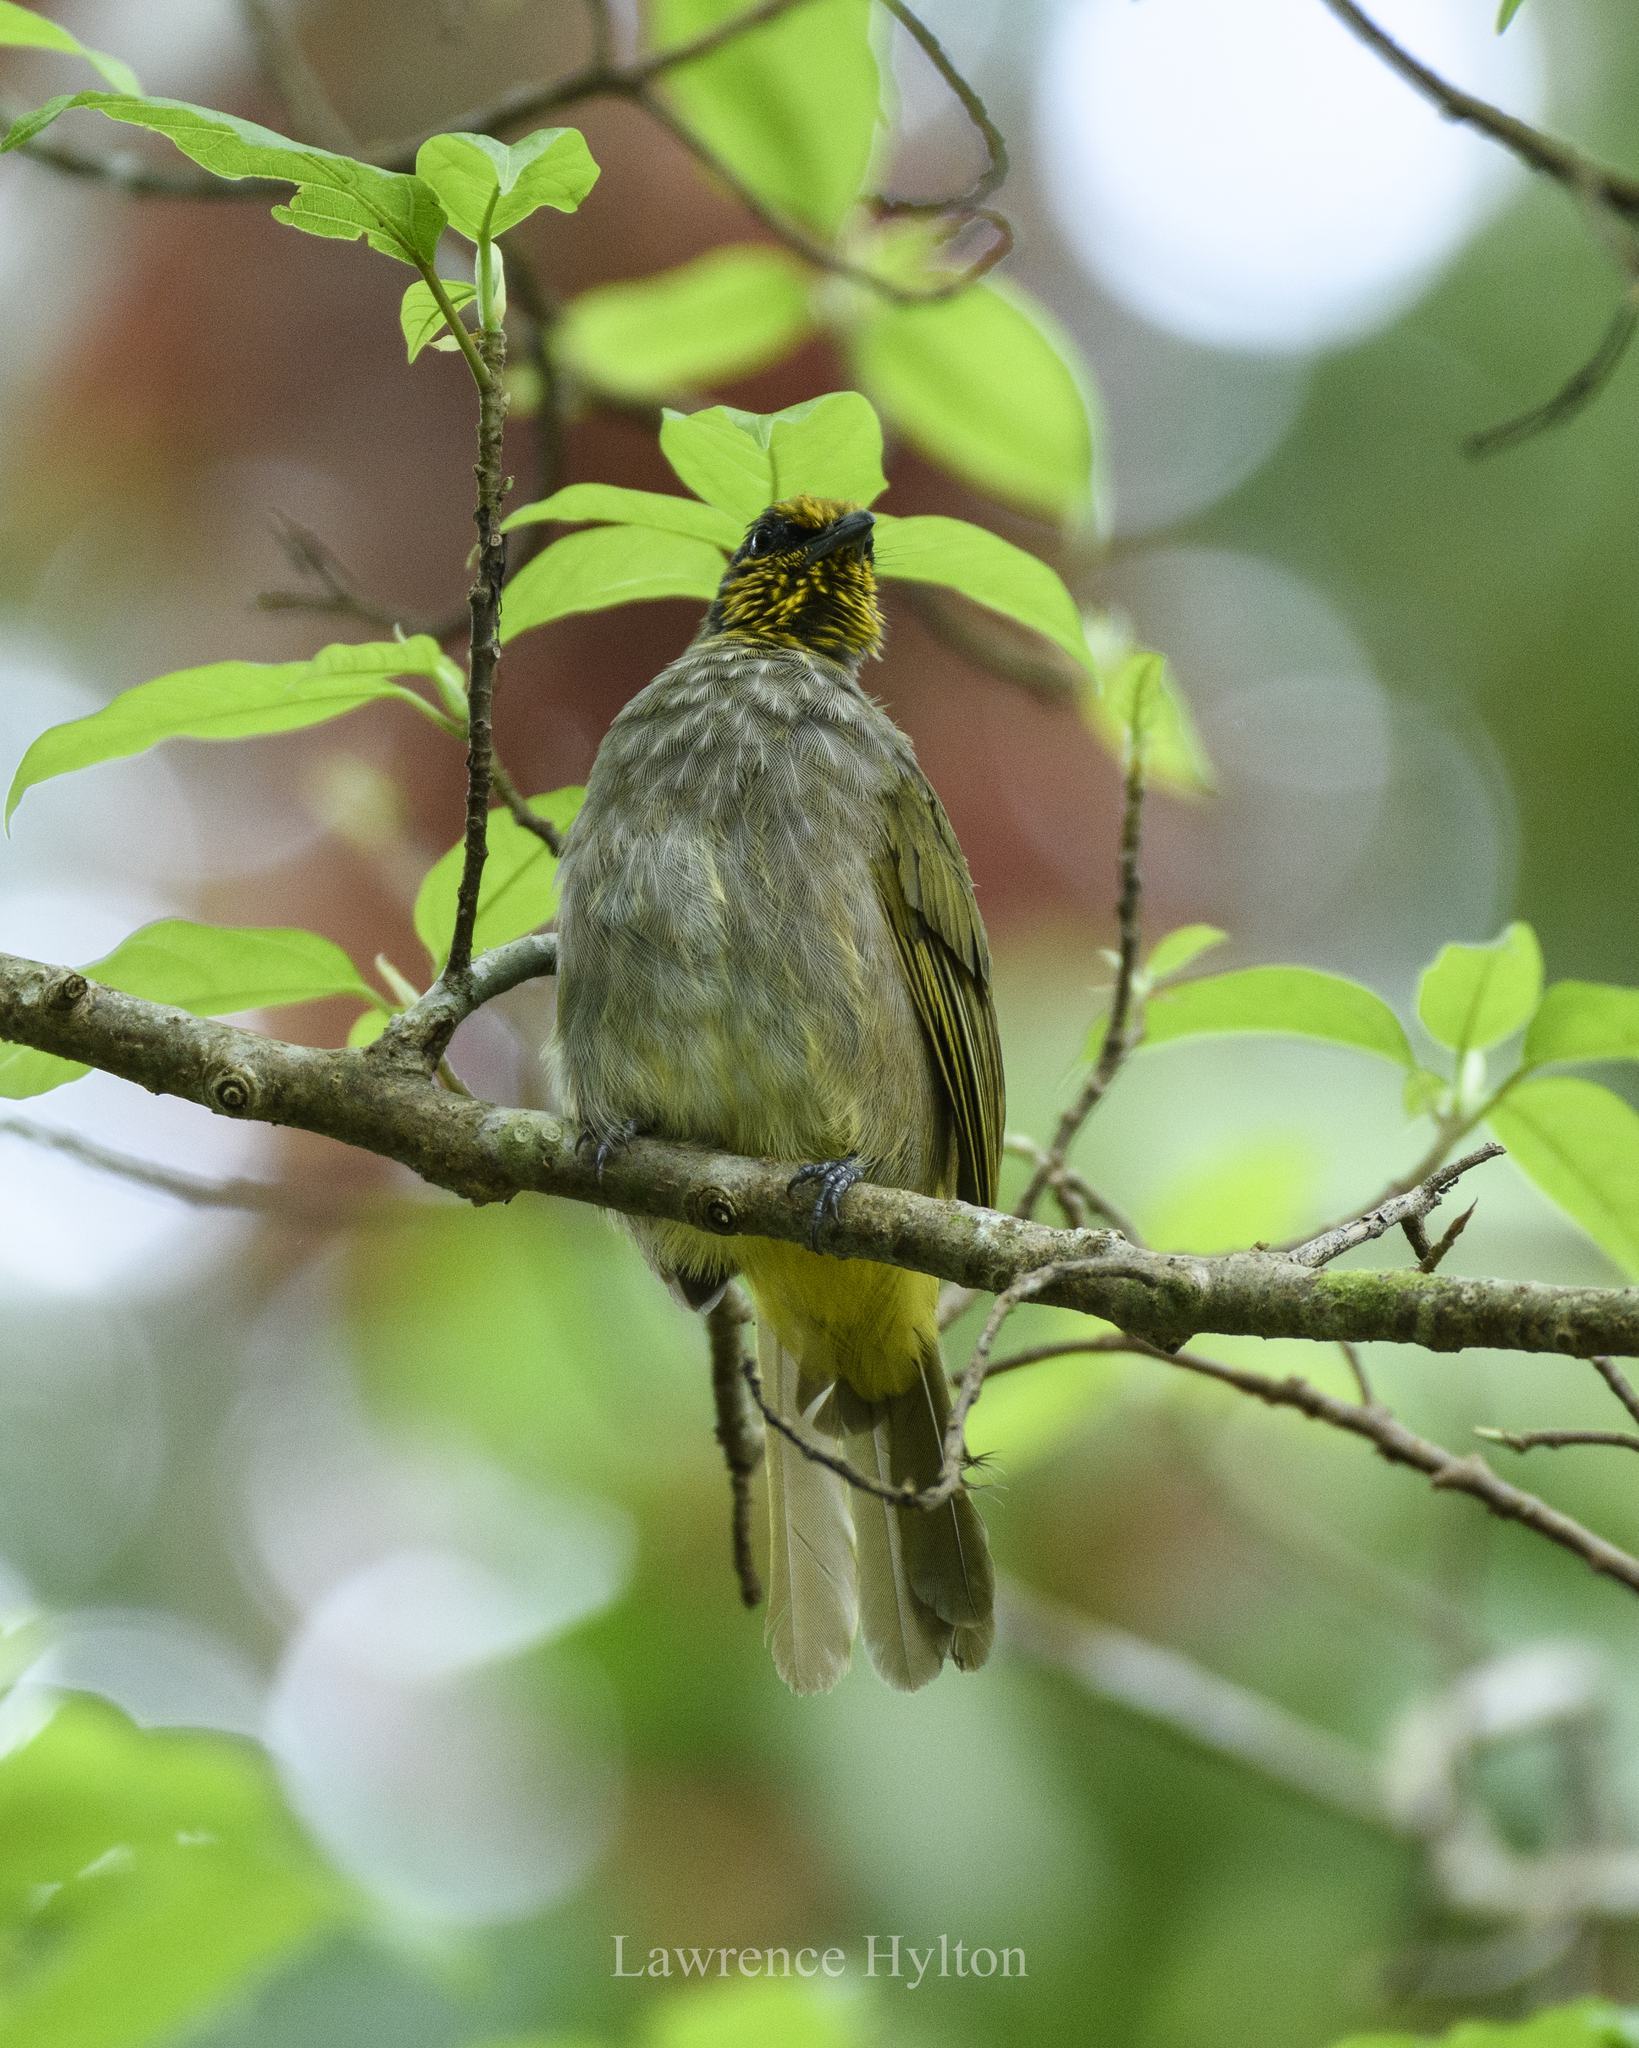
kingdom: Animalia
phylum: Chordata
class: Aves
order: Passeriformes
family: Pycnonotidae
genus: Pycnonotus
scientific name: Pycnonotus finlaysoni
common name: Stripe-throated bulbul
